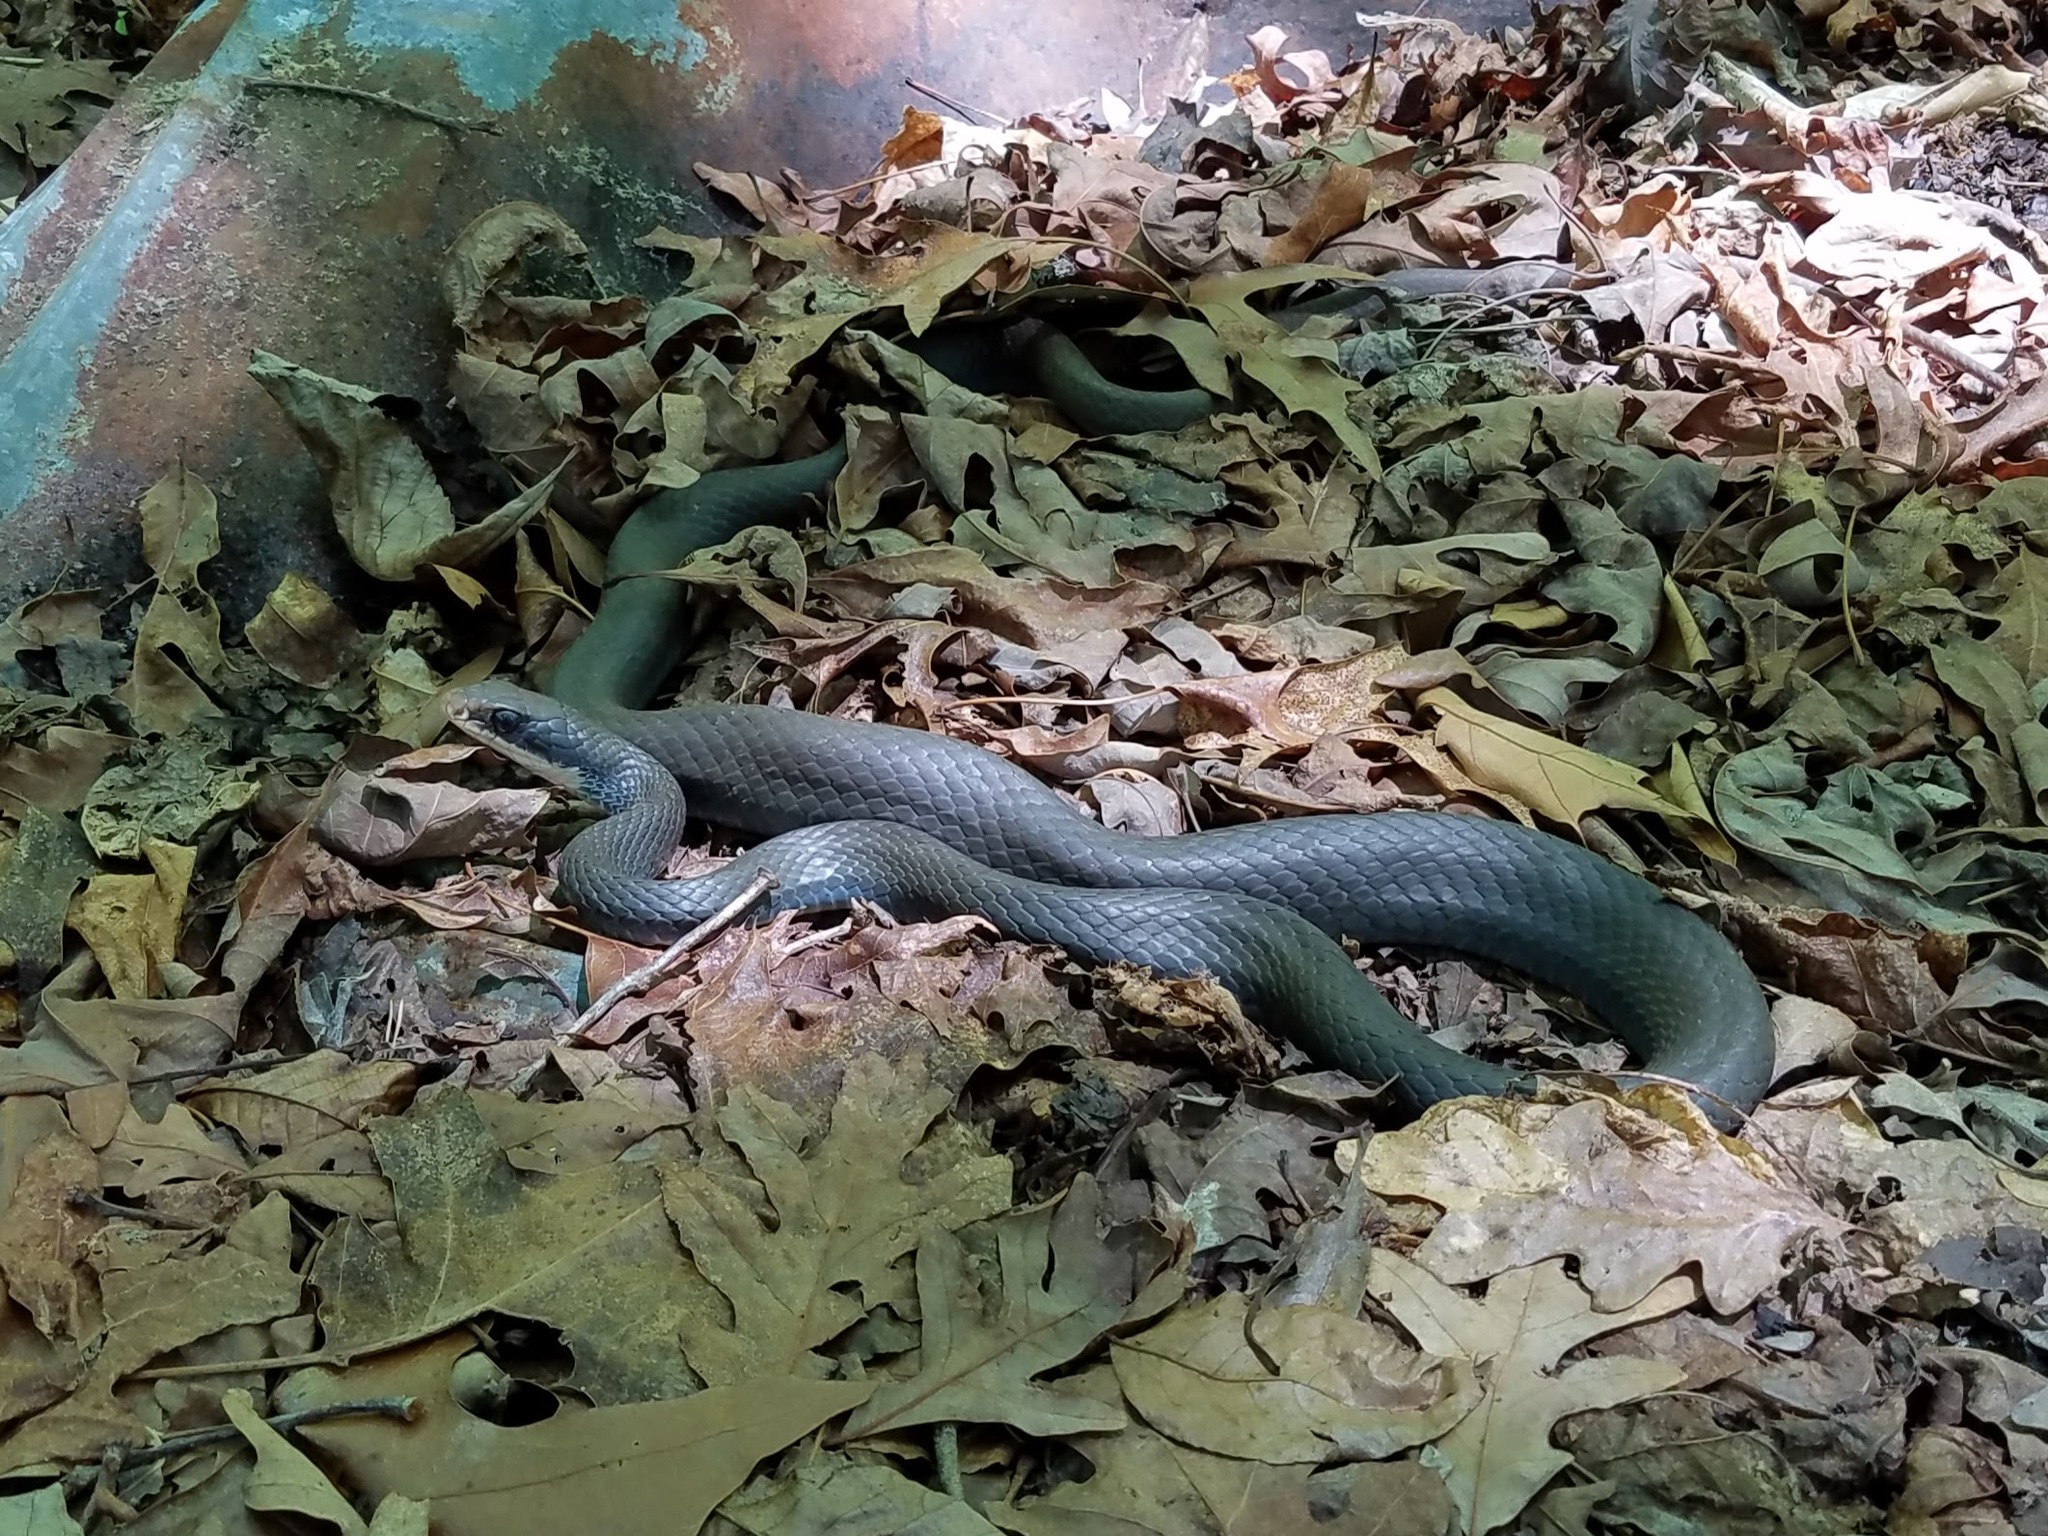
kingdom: Animalia
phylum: Chordata
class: Squamata
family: Colubridae
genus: Coluber
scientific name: Coluber constrictor
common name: Eastern racer
